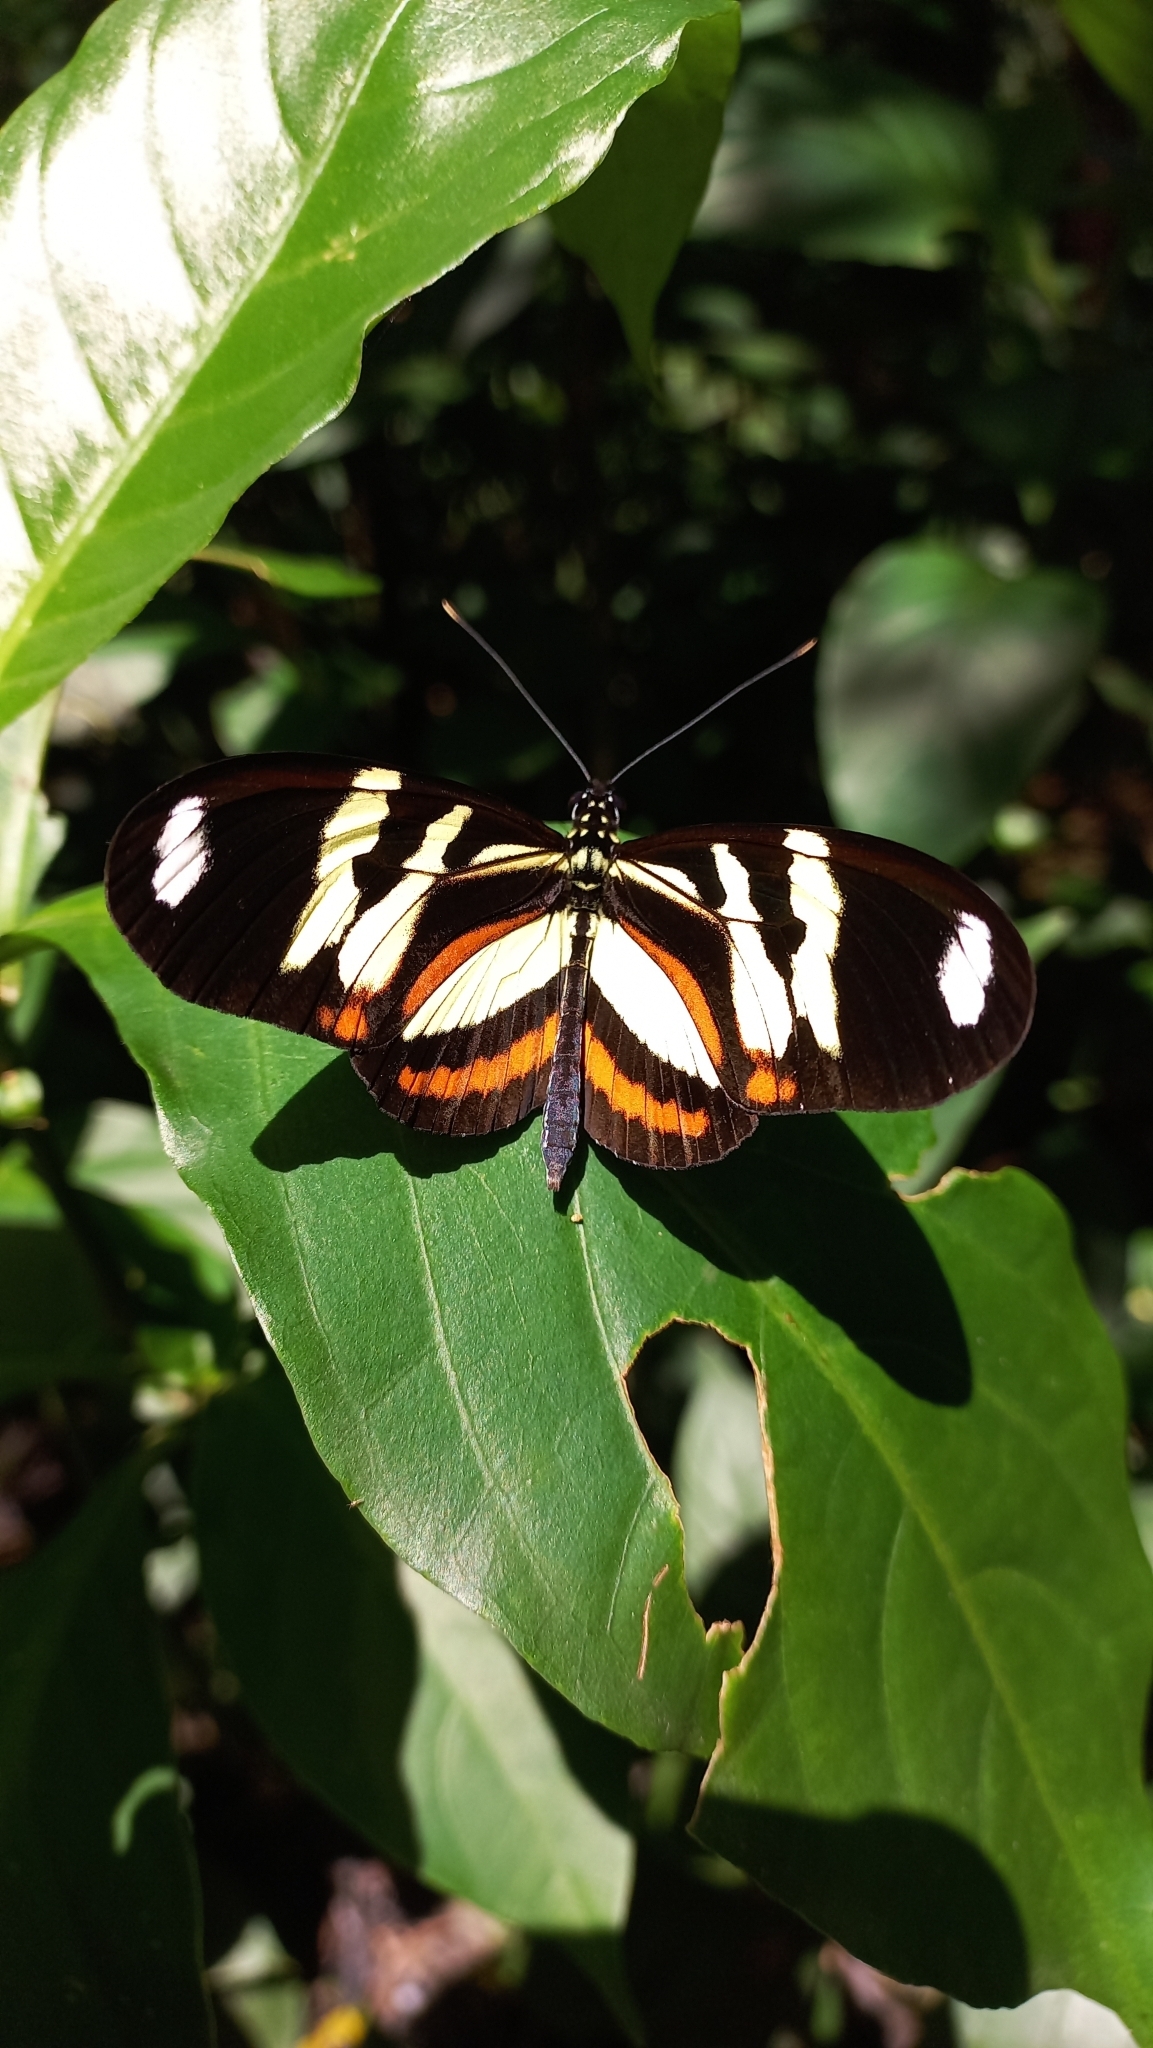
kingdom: Animalia
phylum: Arthropoda
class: Insecta
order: Lepidoptera
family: Nymphalidae
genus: Heliconius
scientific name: Heliconius ethilla
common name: Ethilia longwing
